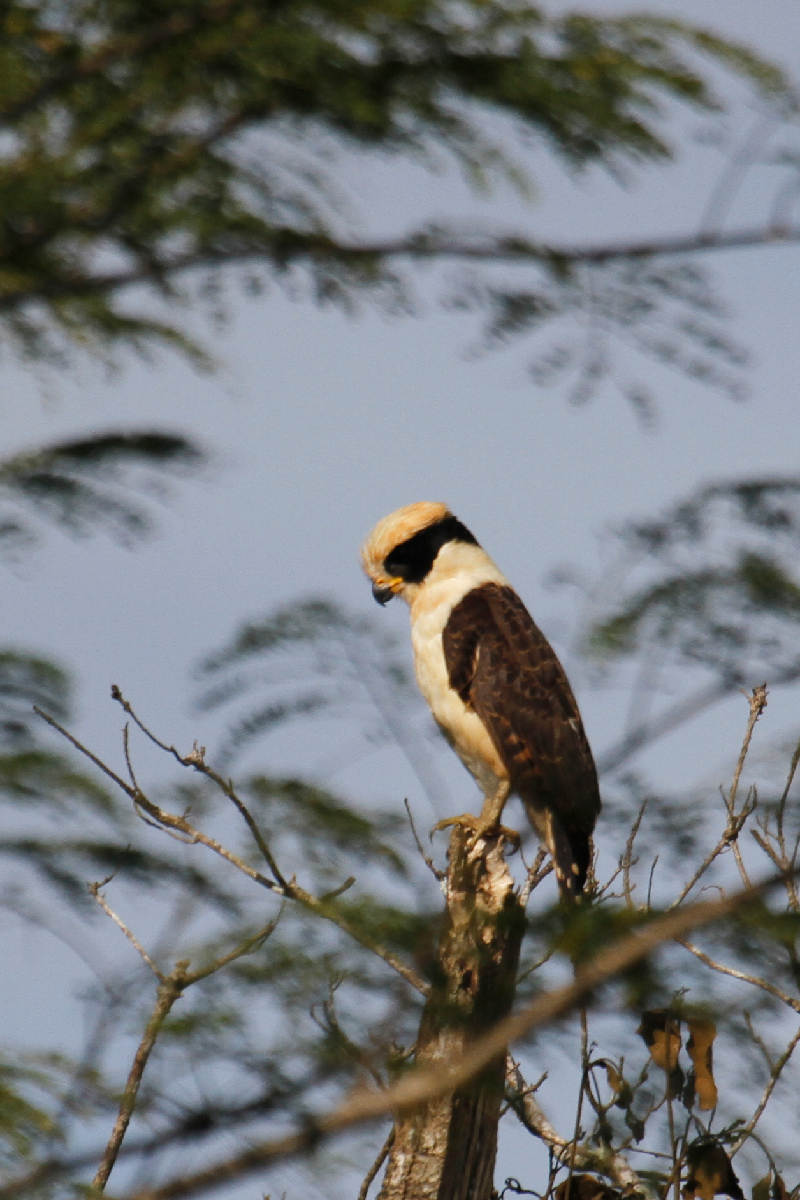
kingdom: Animalia
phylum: Chordata
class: Aves
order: Falconiformes
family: Falconidae
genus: Herpetotheres
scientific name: Herpetotheres cachinnans
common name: Laughing falcon
